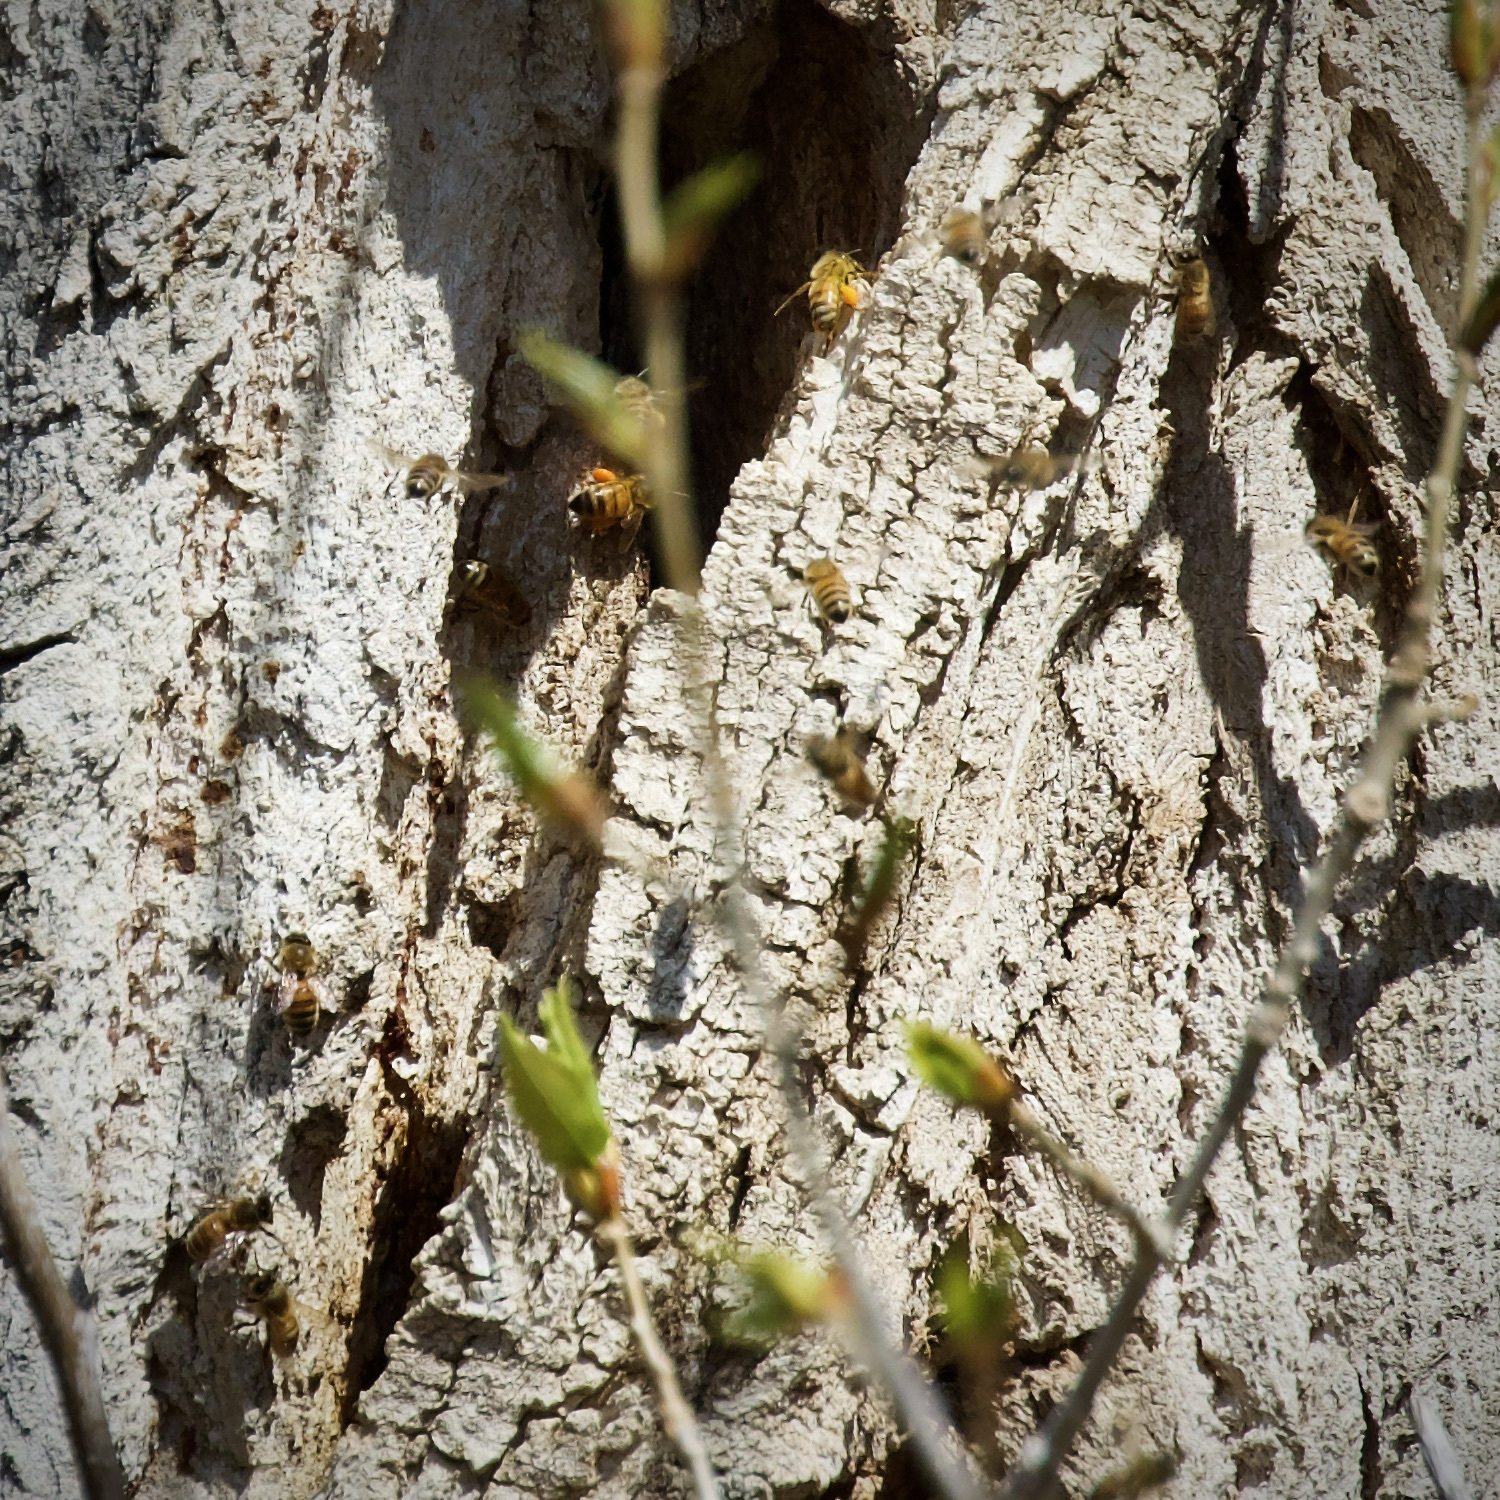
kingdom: Animalia
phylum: Arthropoda
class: Insecta
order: Hymenoptera
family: Apidae
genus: Apis
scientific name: Apis mellifera
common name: Honey bee
